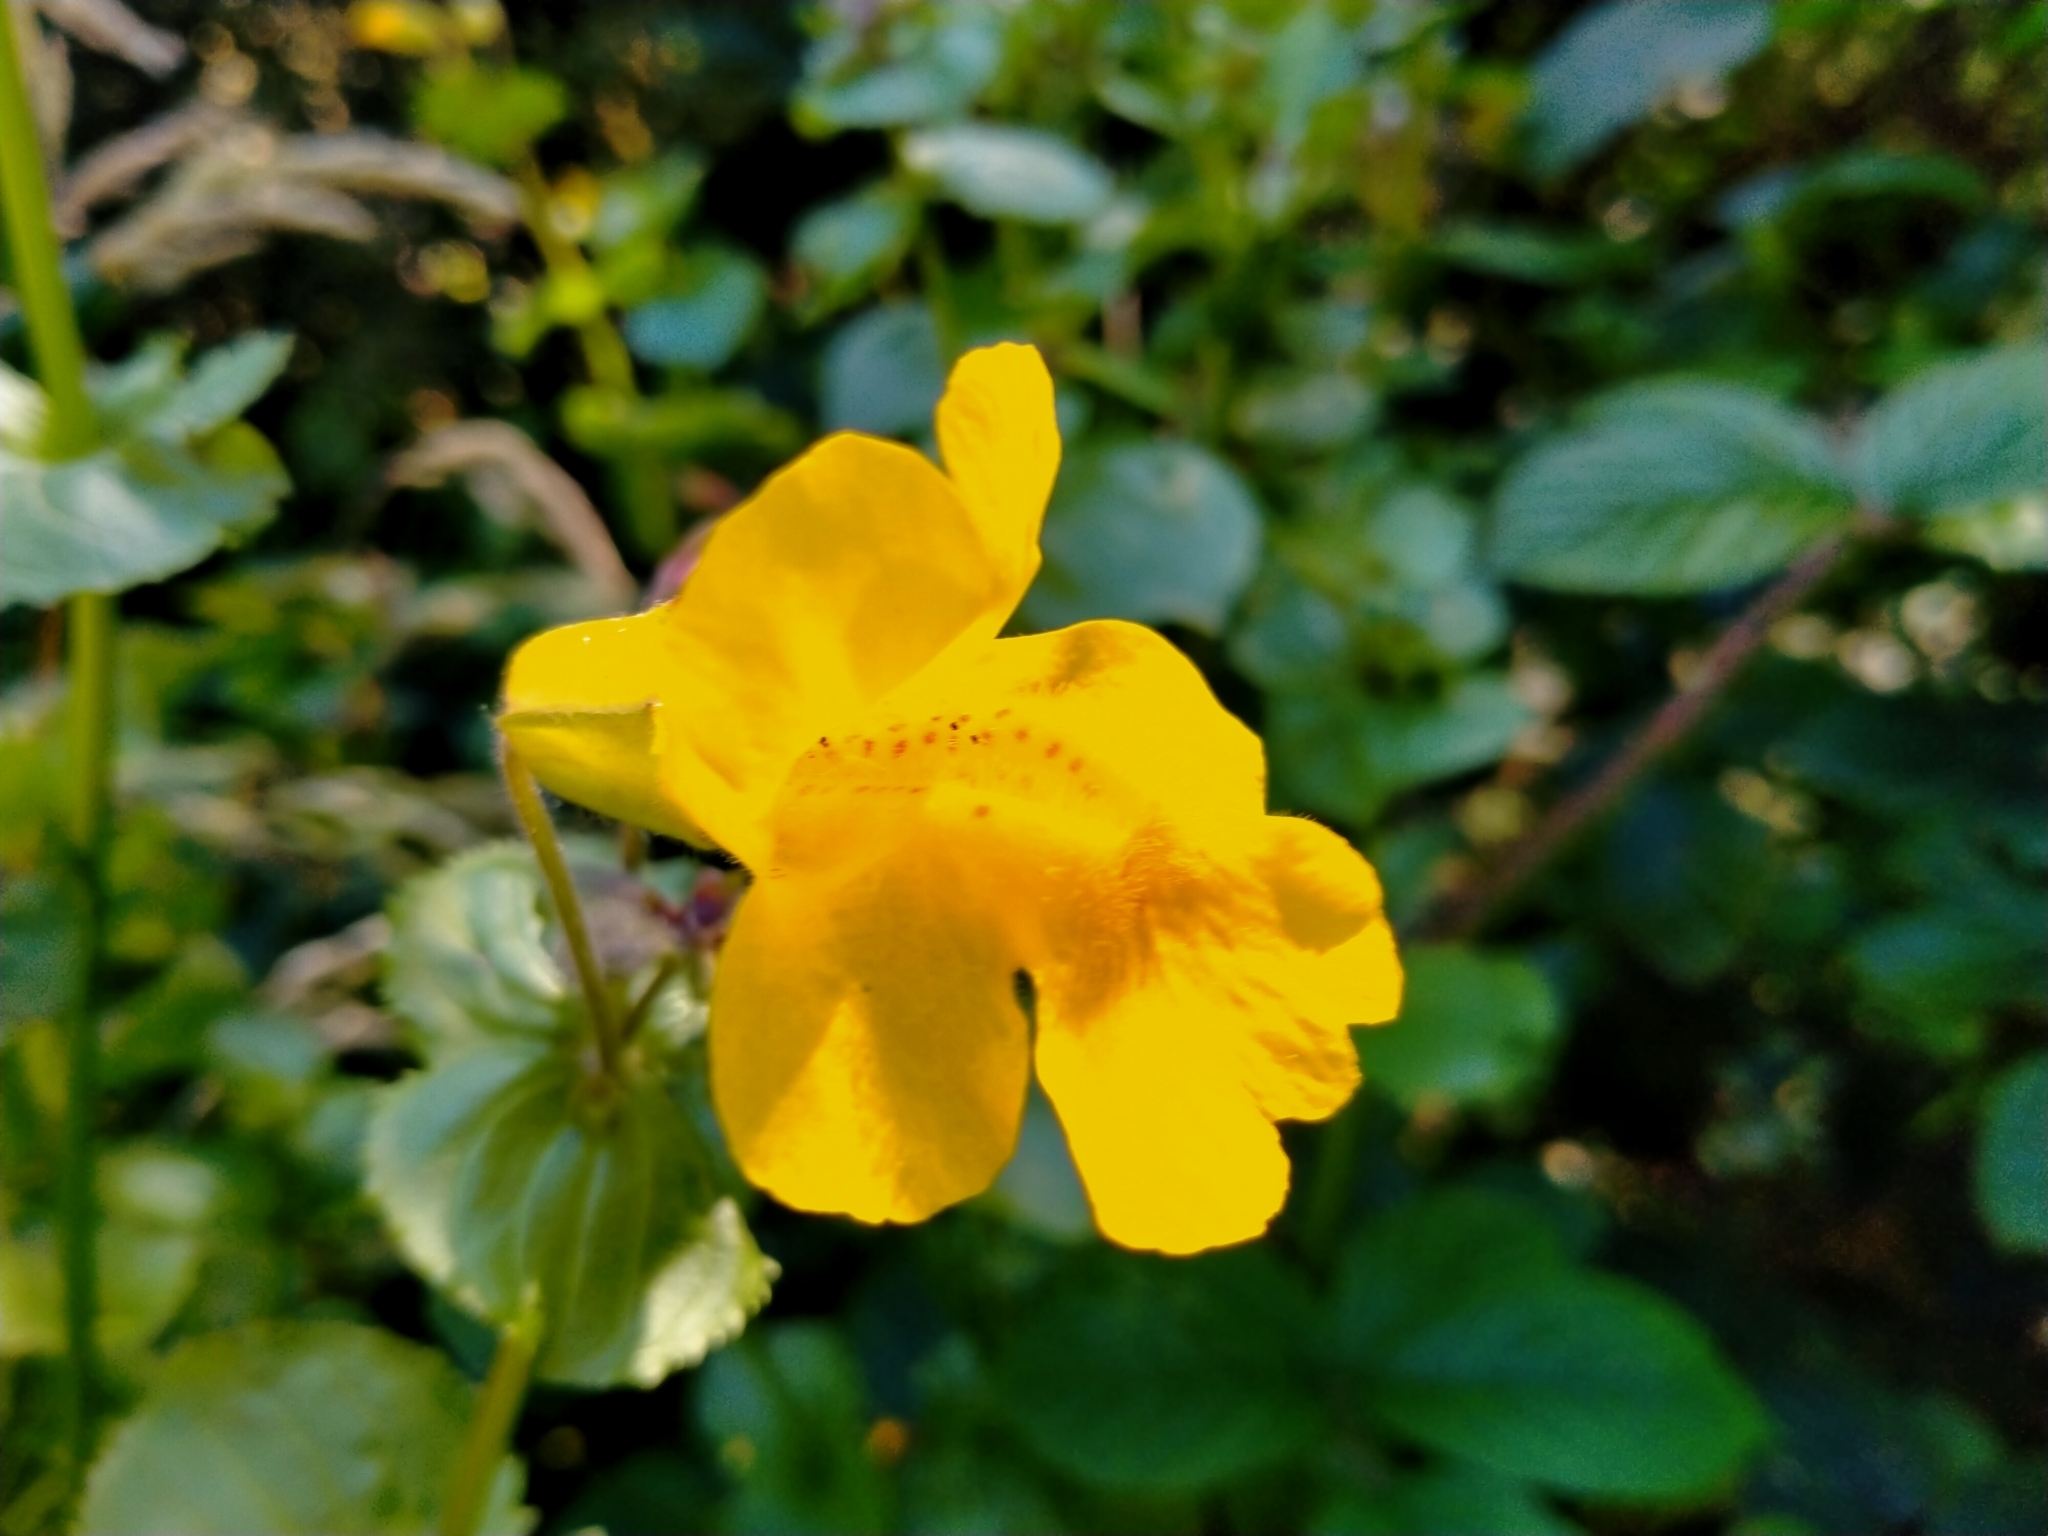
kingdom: Plantae
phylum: Tracheophyta
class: Magnoliopsida
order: Lamiales
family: Phrymaceae
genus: Erythranthe
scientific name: Erythranthe guttata
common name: Monkeyflower
